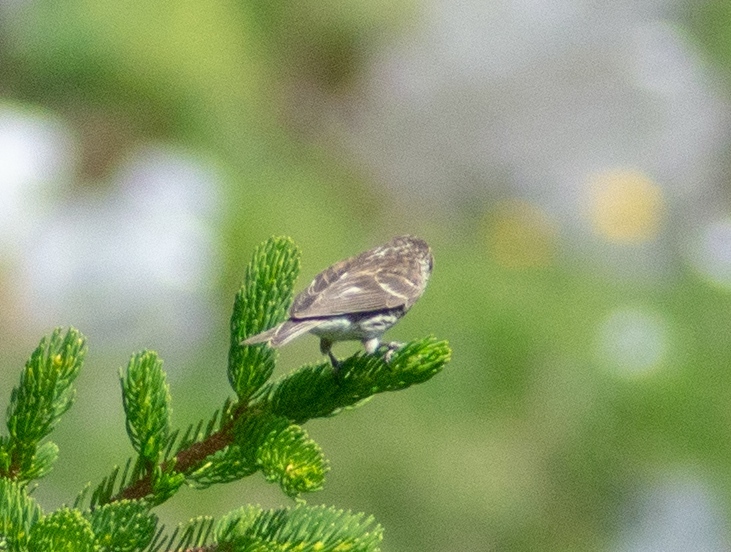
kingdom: Animalia
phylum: Chordata
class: Aves
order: Passeriformes
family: Fringillidae
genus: Acanthis
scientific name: Acanthis flammea
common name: Common redpoll
